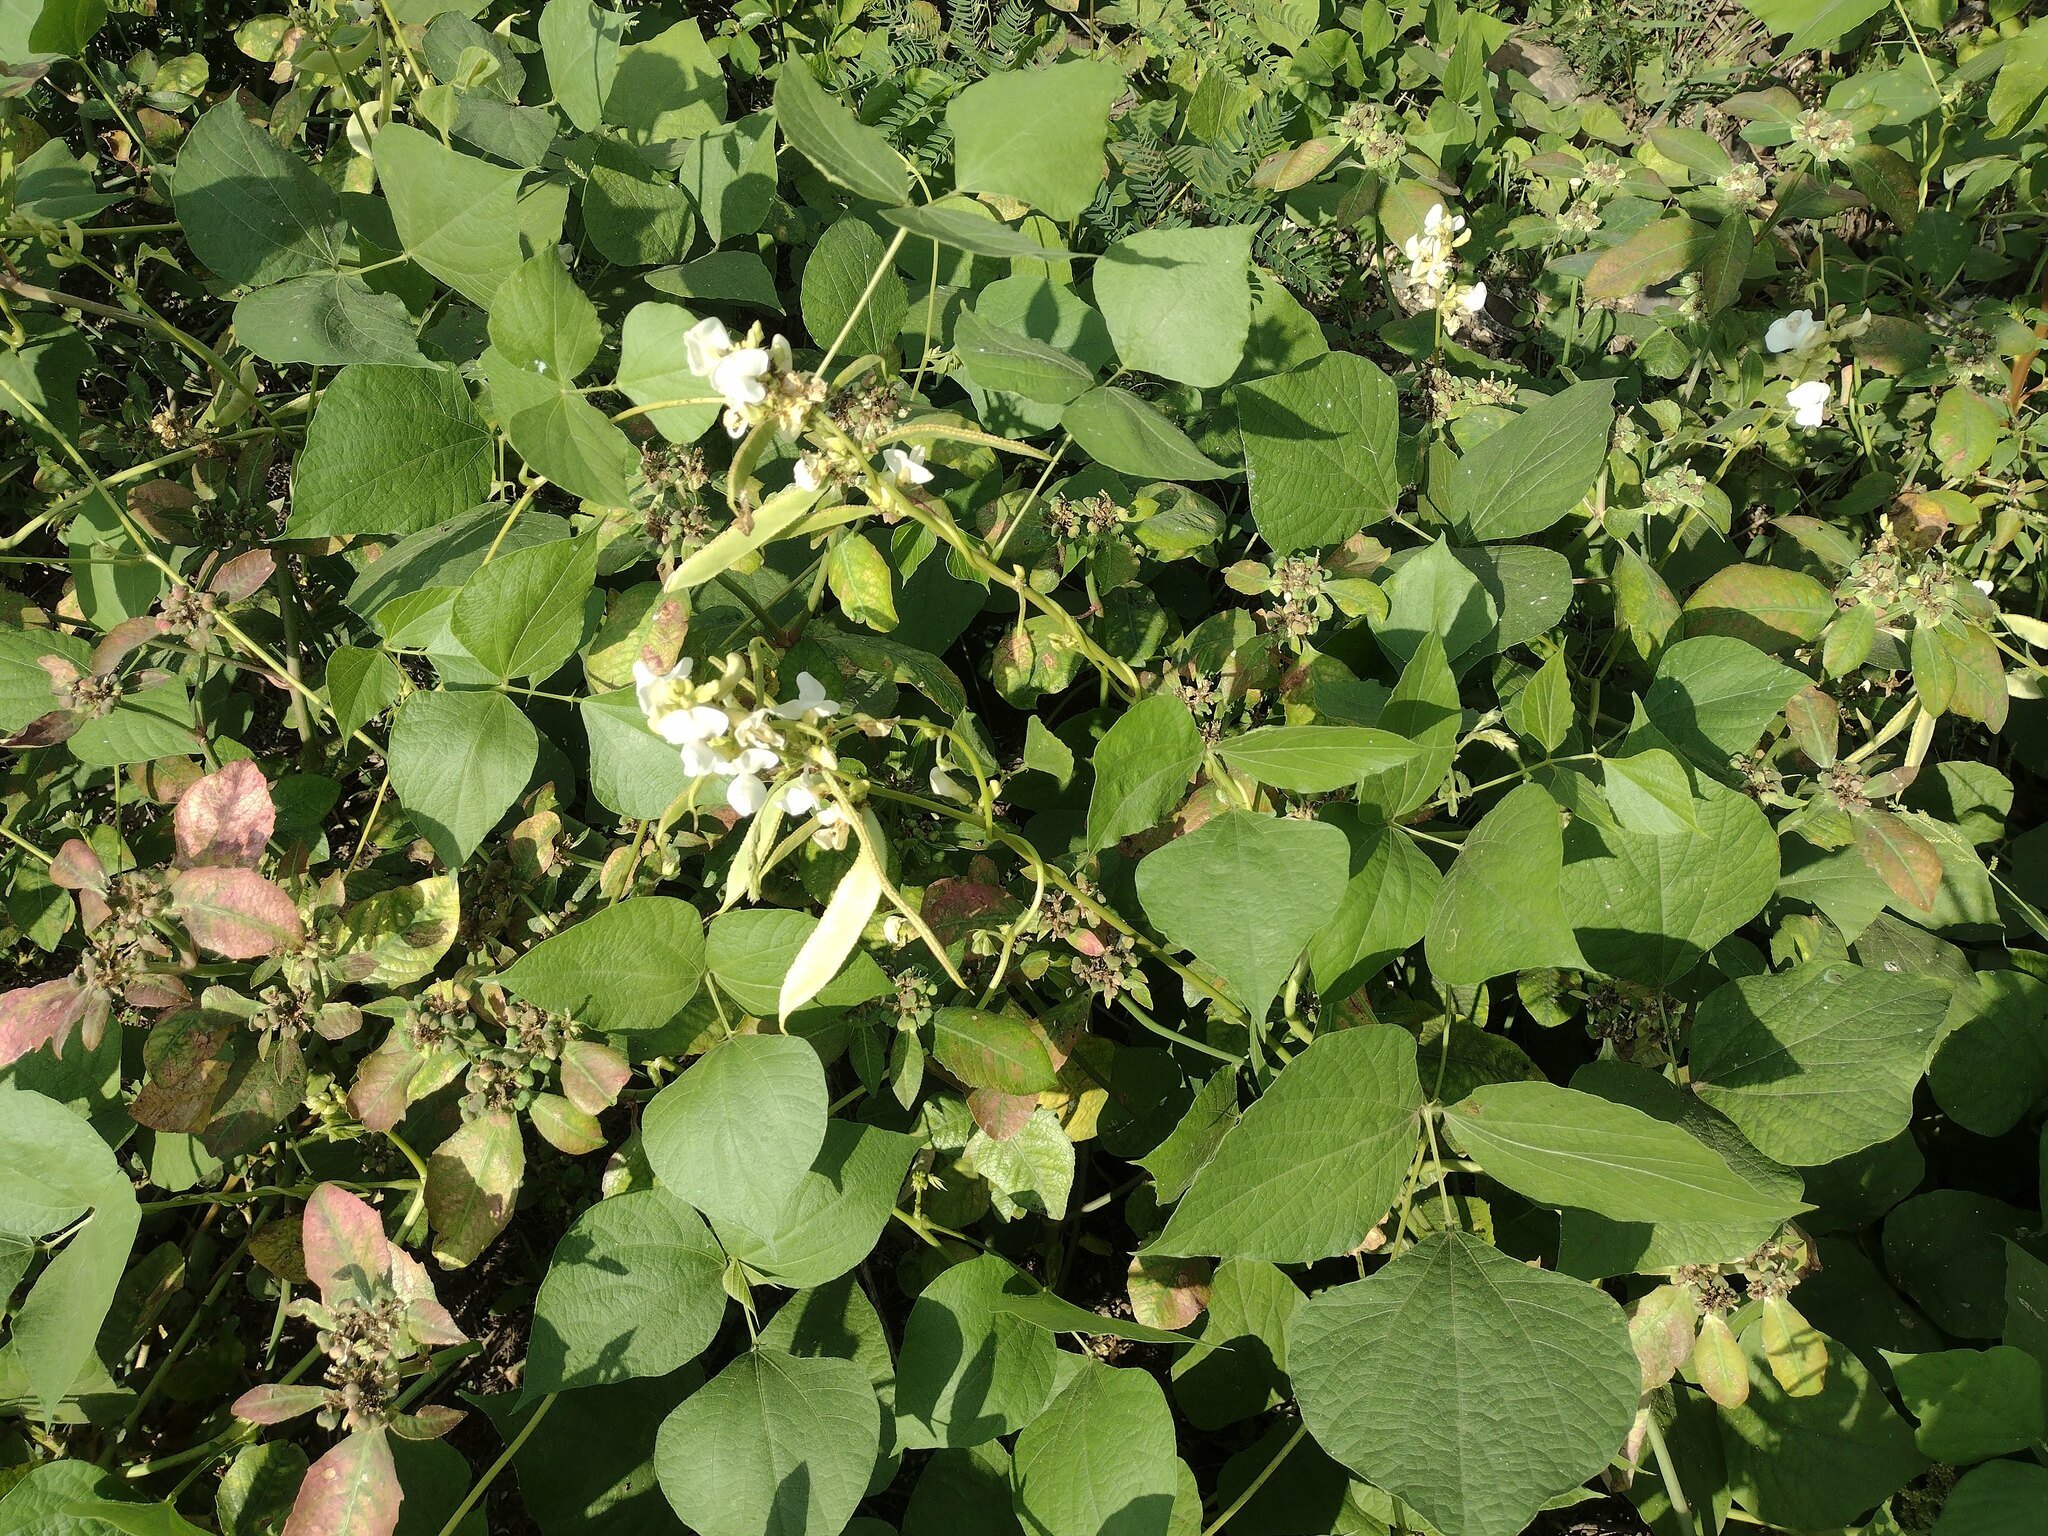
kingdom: Plantae
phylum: Tracheophyta
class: Magnoliopsida
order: Fabales
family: Fabaceae
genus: Lablab
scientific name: Lablab purpureus
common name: Lablab-bean
